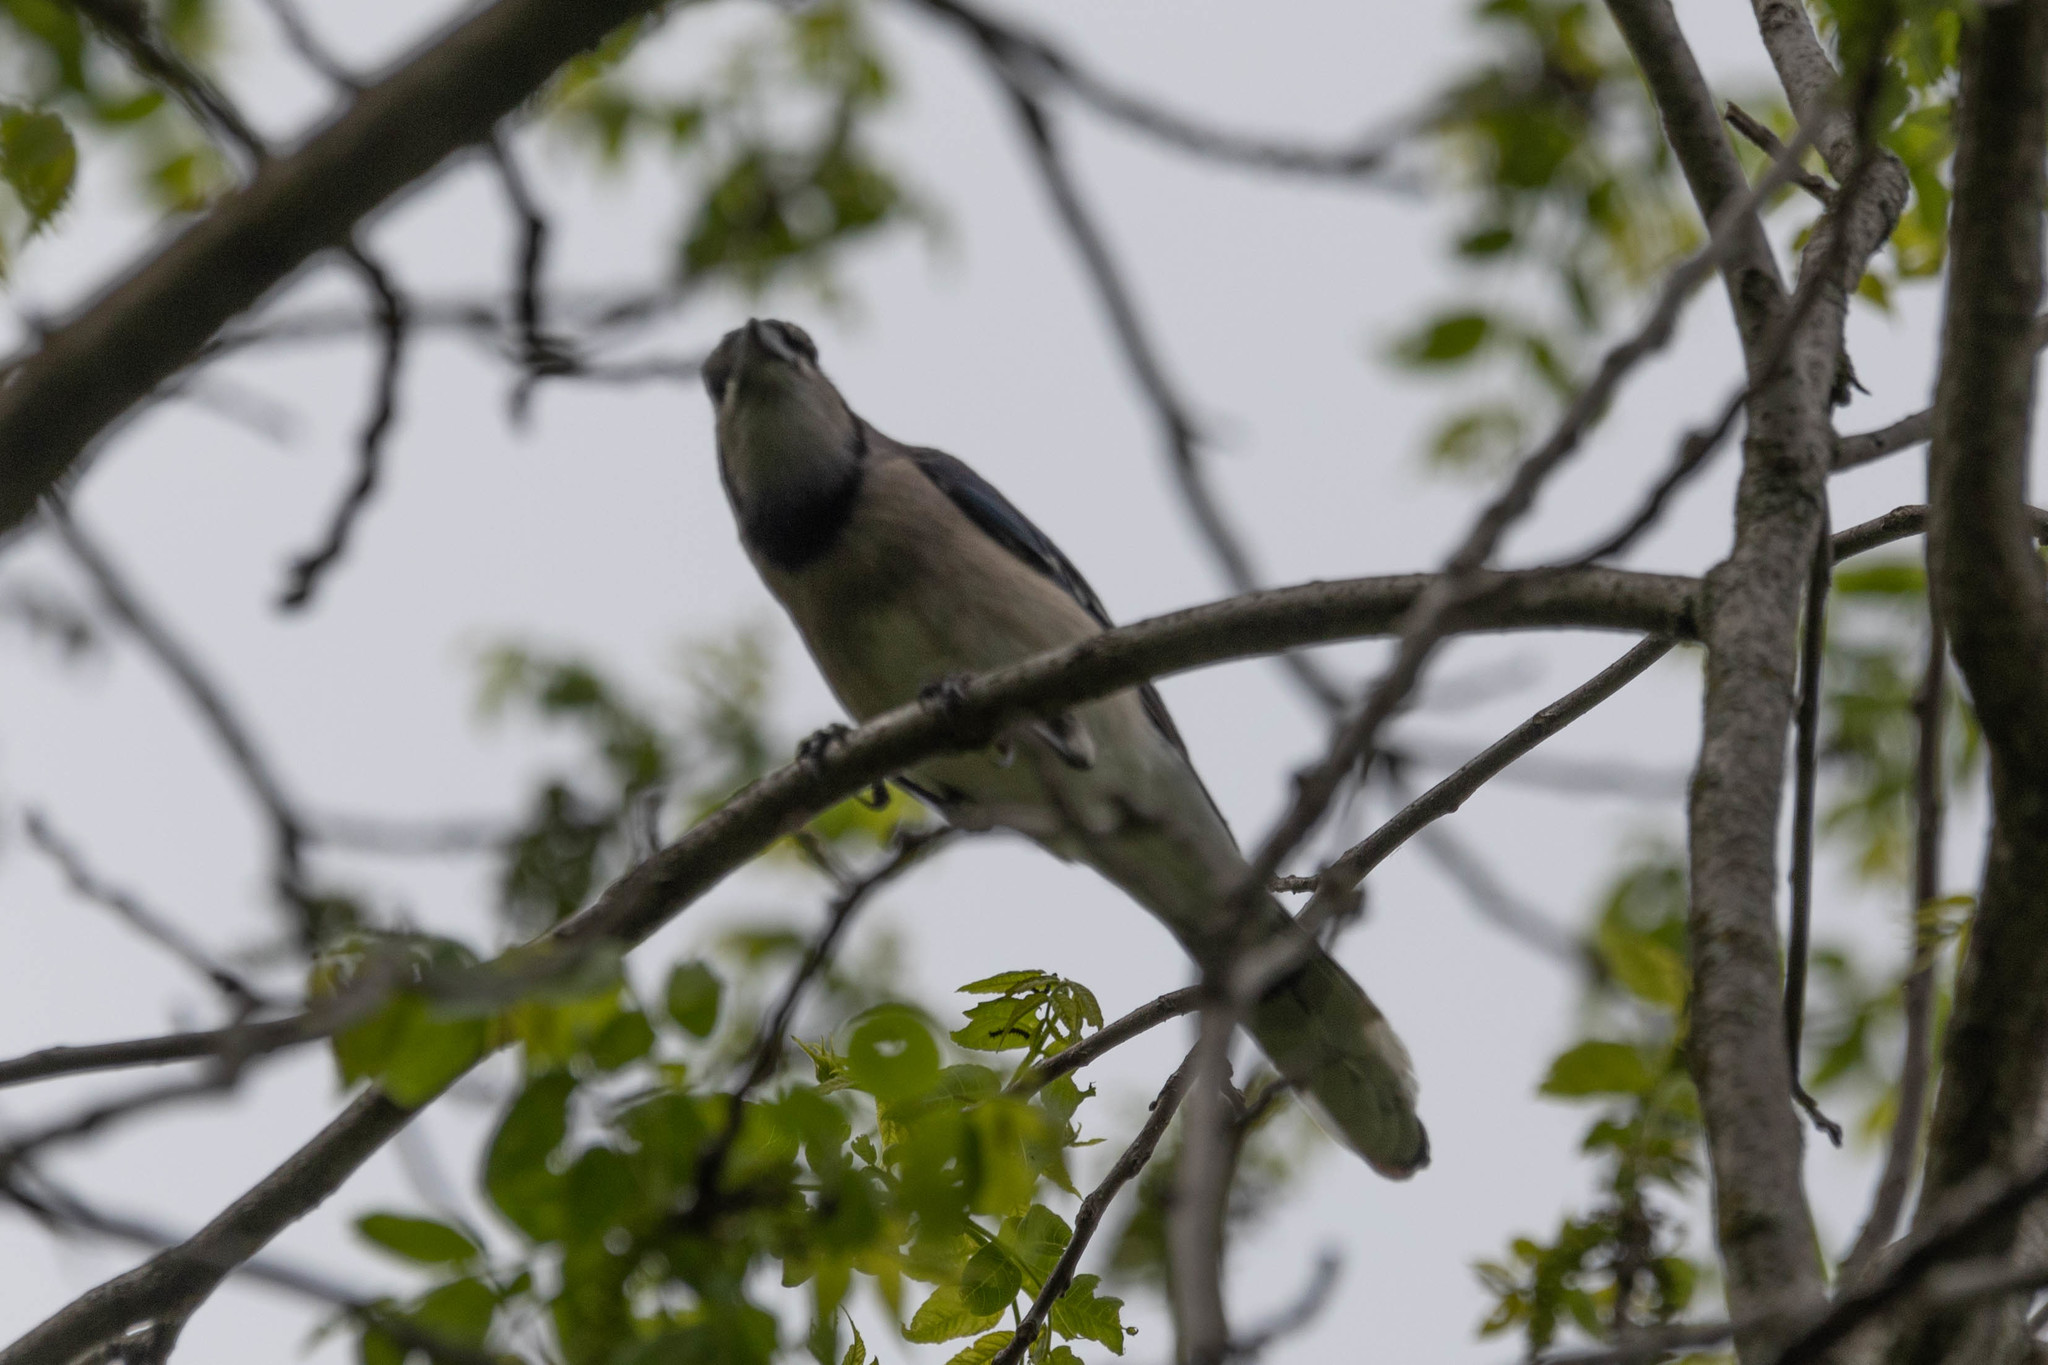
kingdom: Animalia
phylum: Chordata
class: Aves
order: Passeriformes
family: Corvidae
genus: Cyanocitta
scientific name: Cyanocitta cristata
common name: Blue jay
